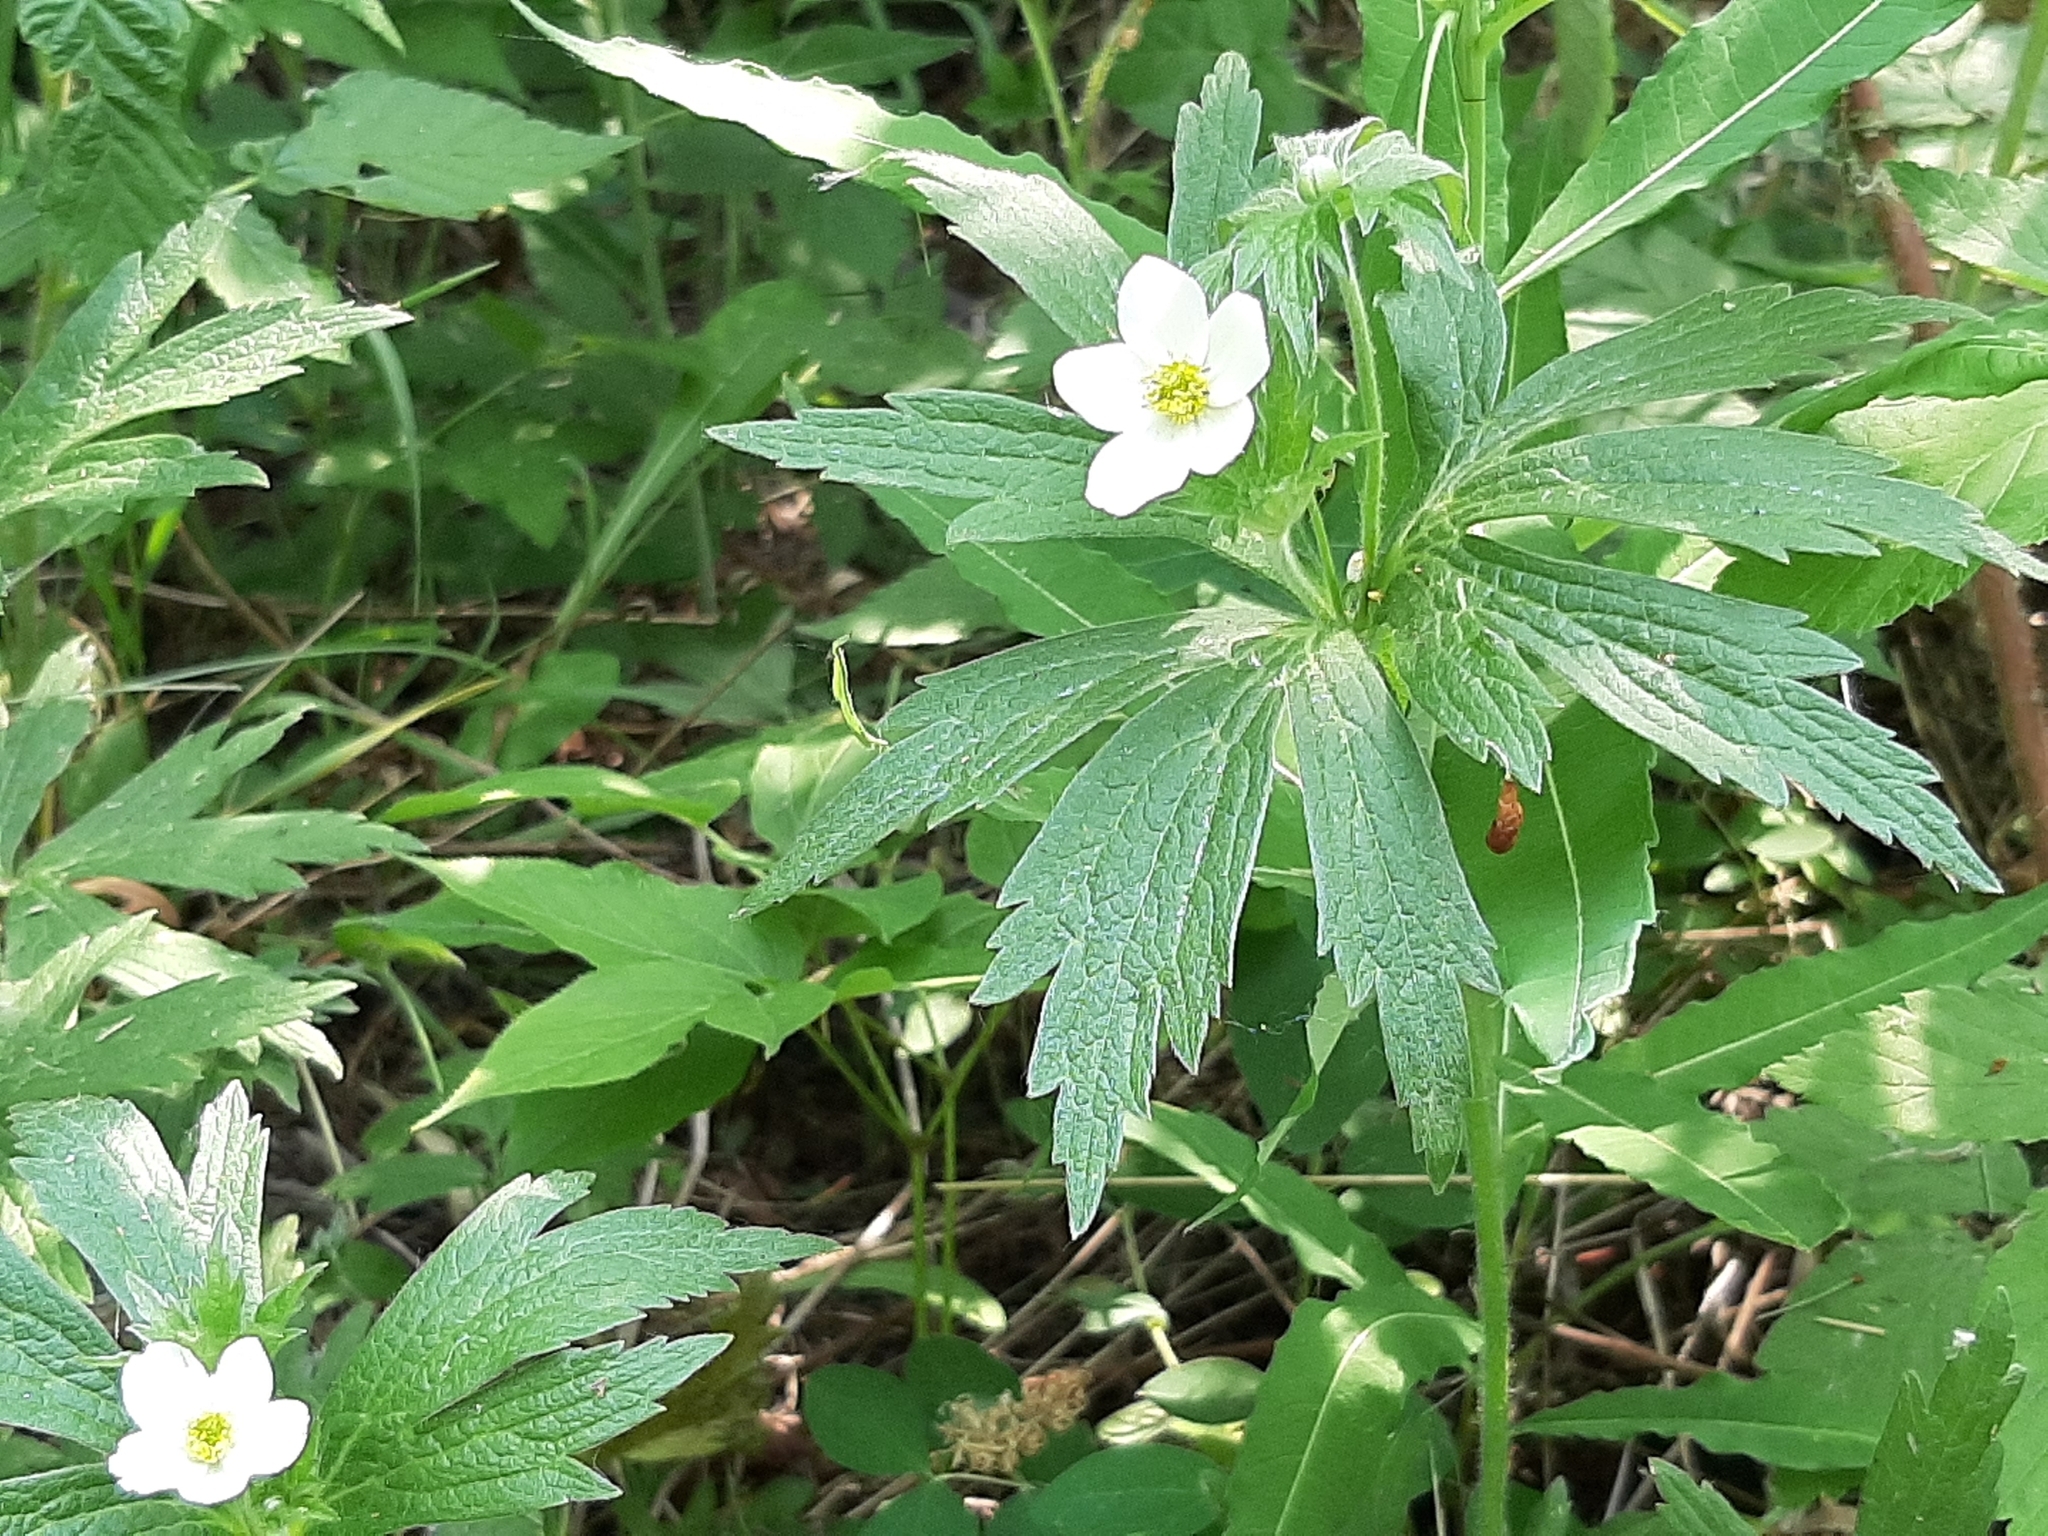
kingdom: Plantae
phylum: Tracheophyta
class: Magnoliopsida
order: Ranunculales
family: Ranunculaceae
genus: Anemonastrum
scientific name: Anemonastrum canadense
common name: Canada anemone
